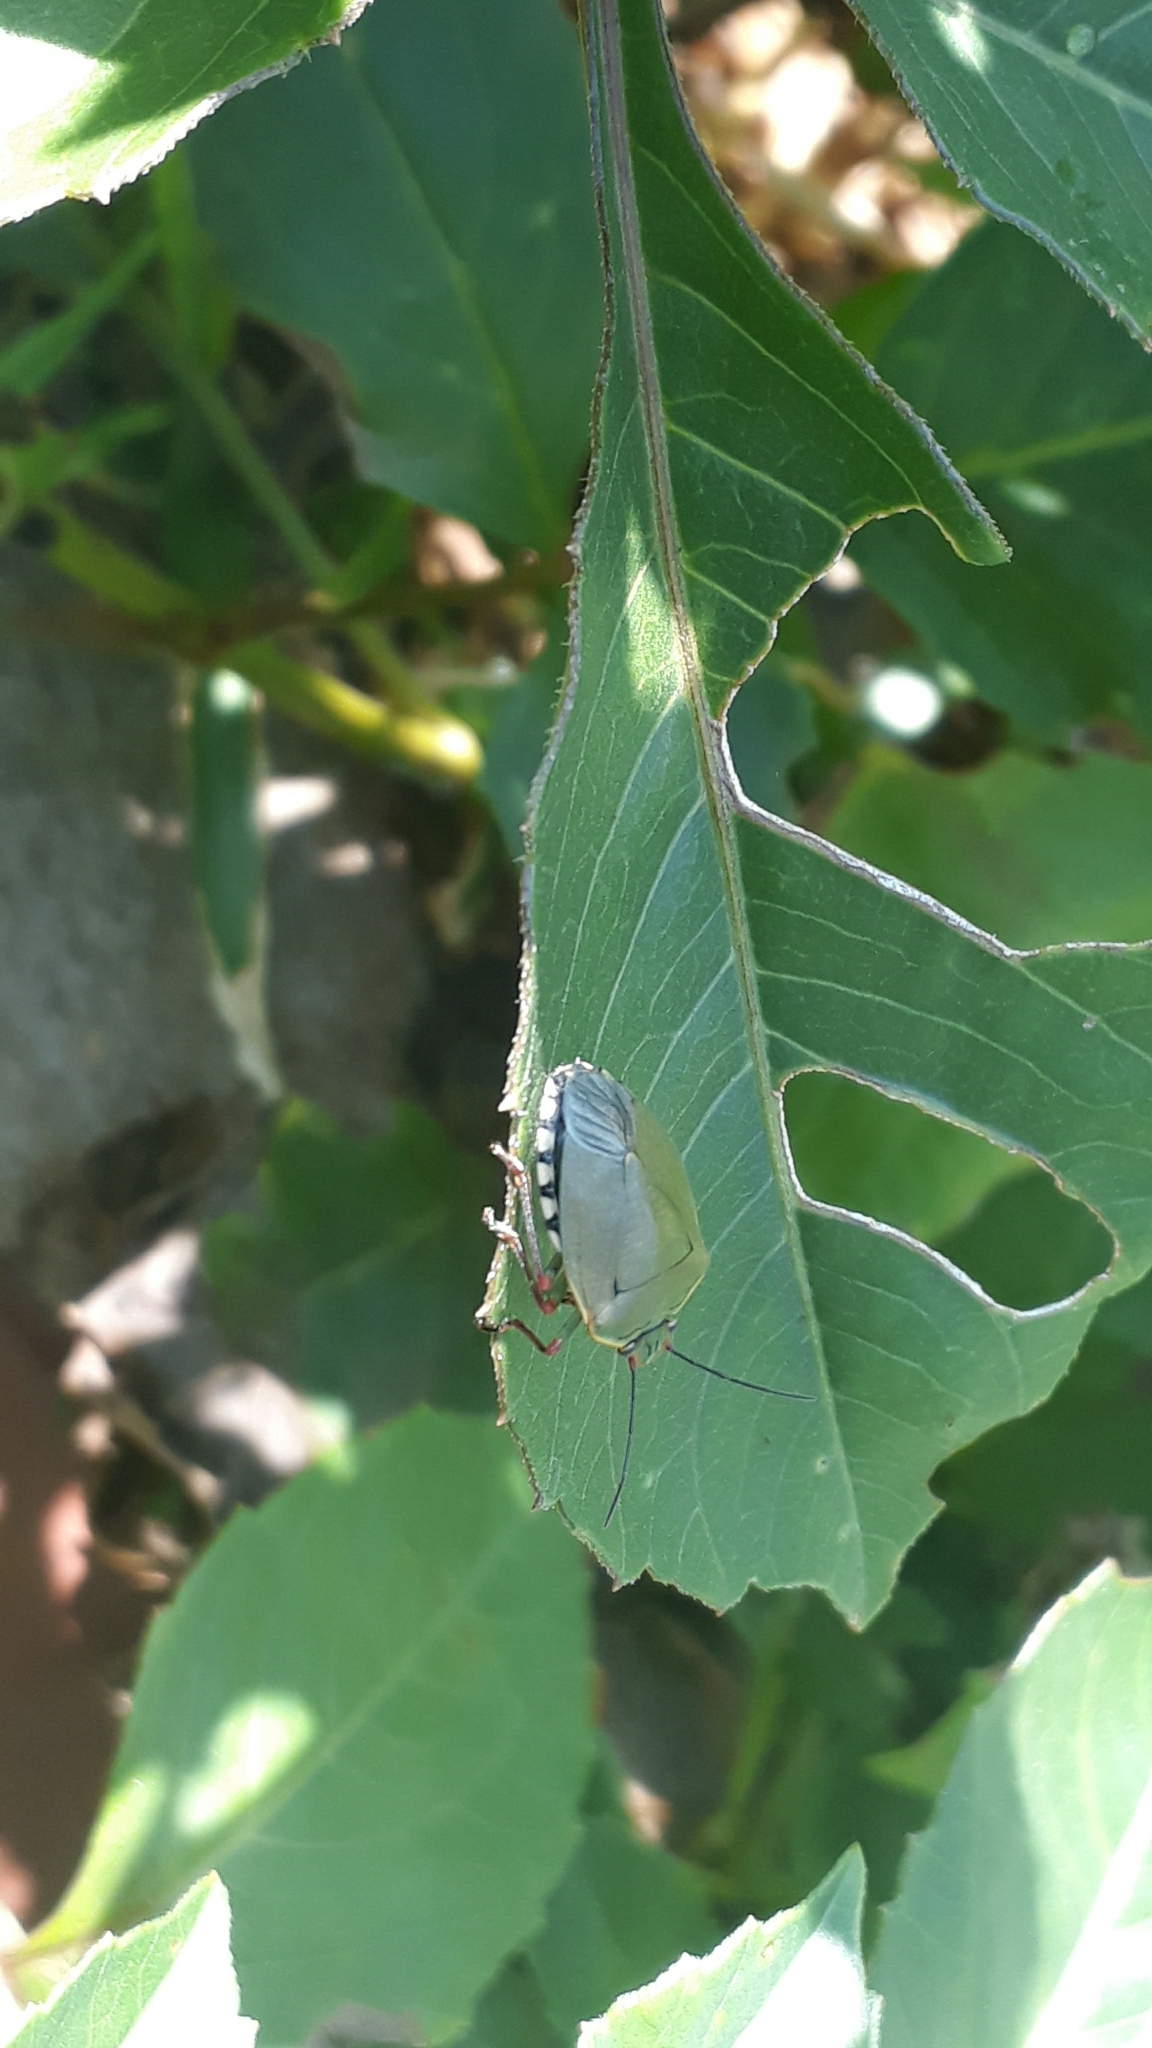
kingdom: Animalia
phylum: Arthropoda
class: Insecta
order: Hemiptera
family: Pentatomidae
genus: Chinavia
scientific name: Chinavia erythrocnemis
